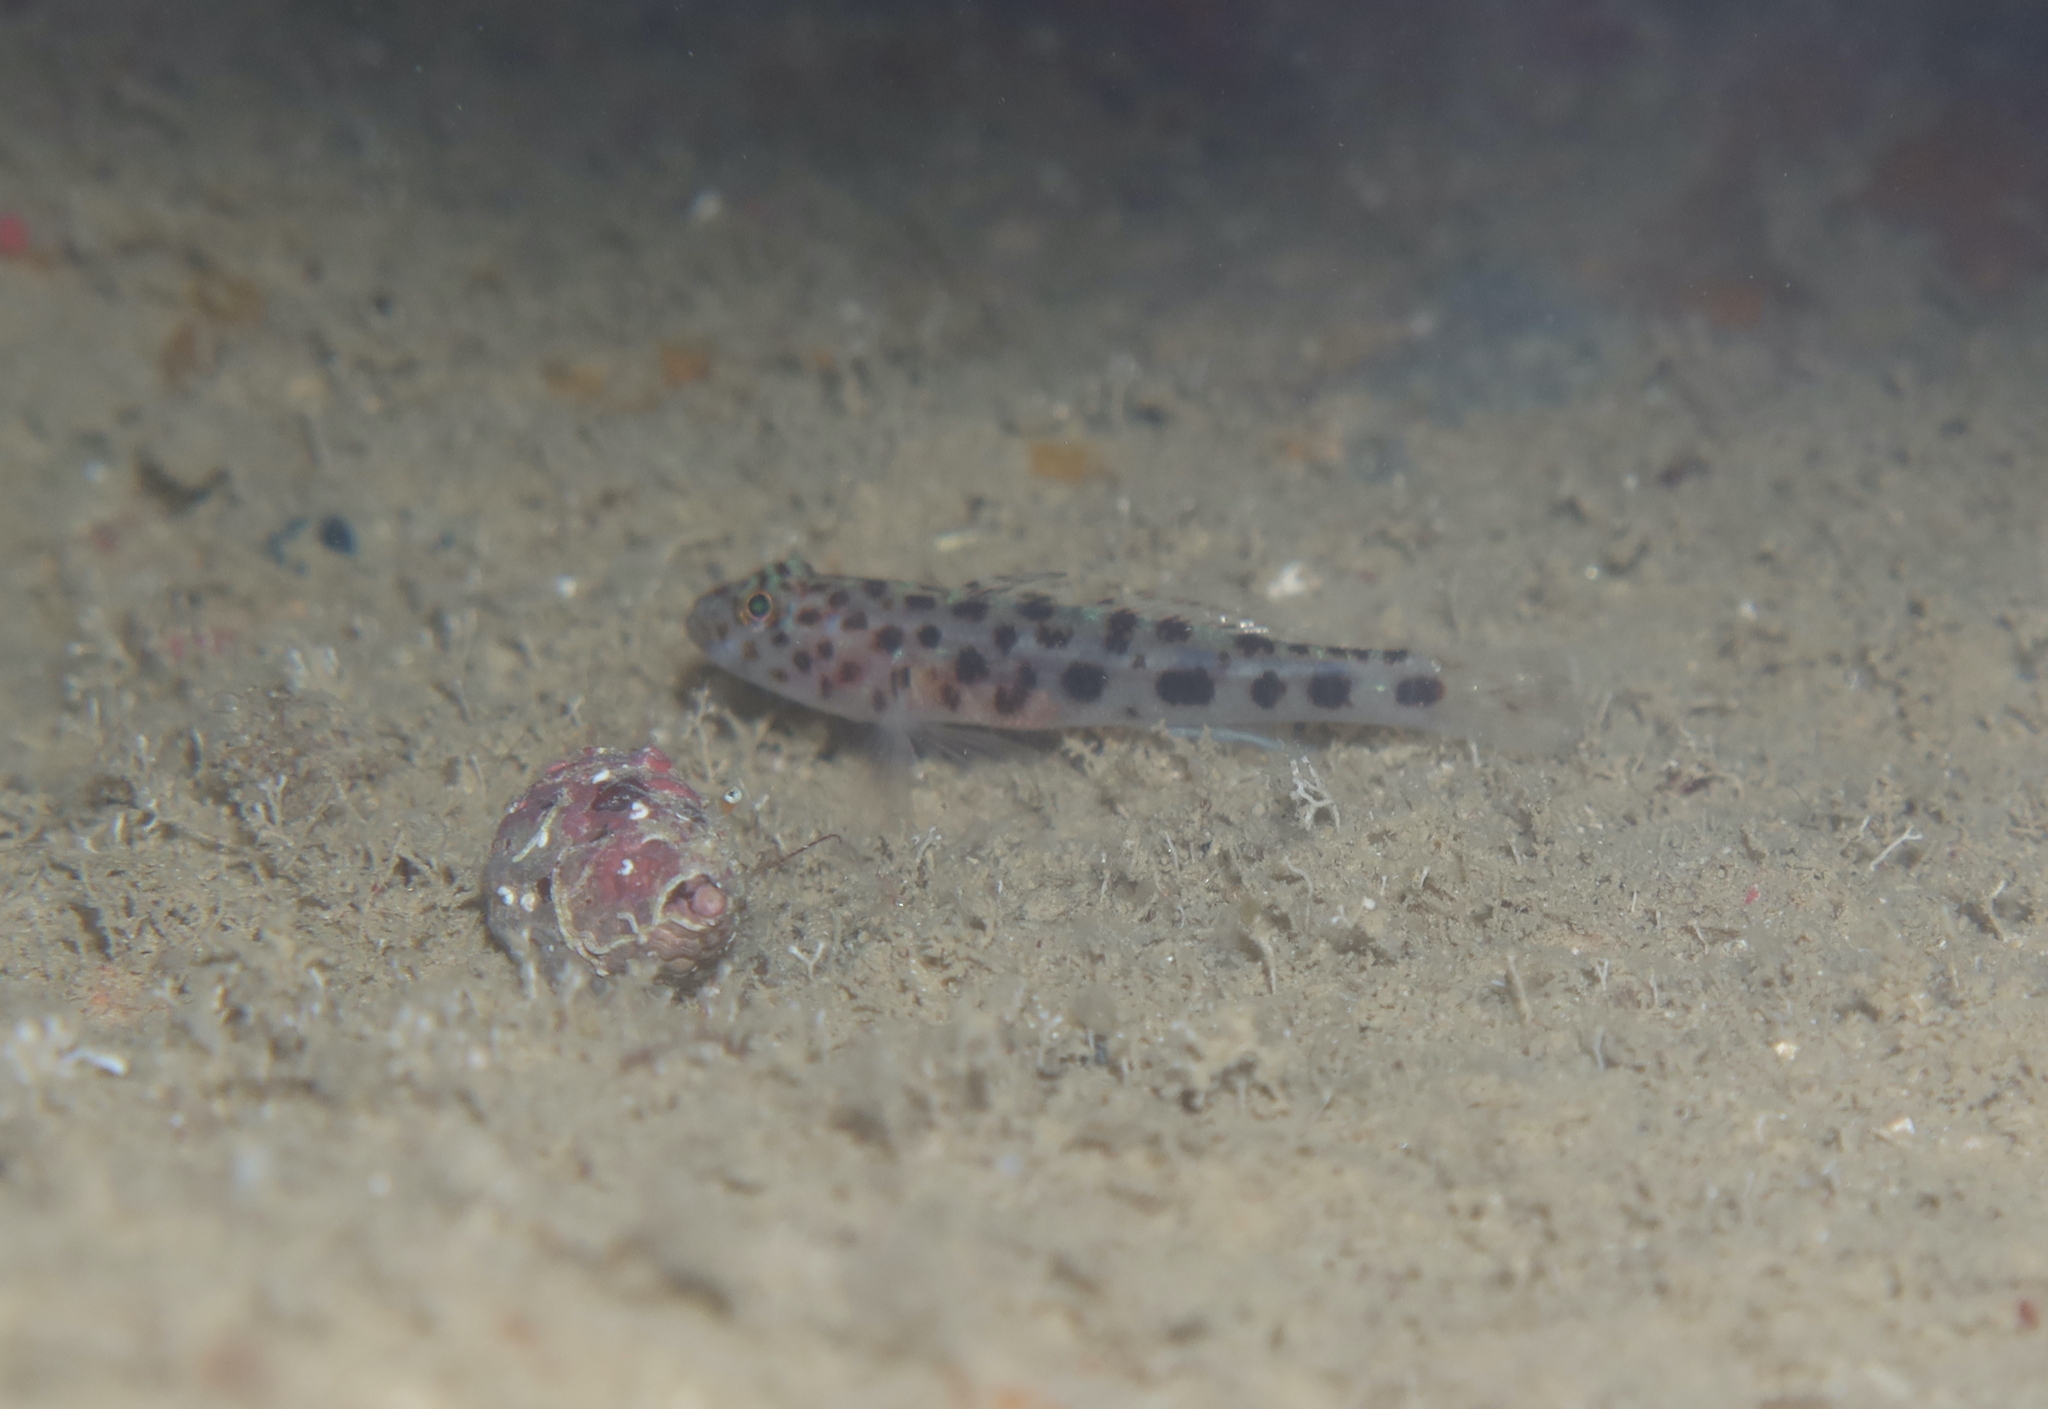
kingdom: Animalia
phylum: Chordata
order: Perciformes
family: Gobiidae
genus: Thorogobius
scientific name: Thorogobius ephippiatus
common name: Leopard-spotted goby
